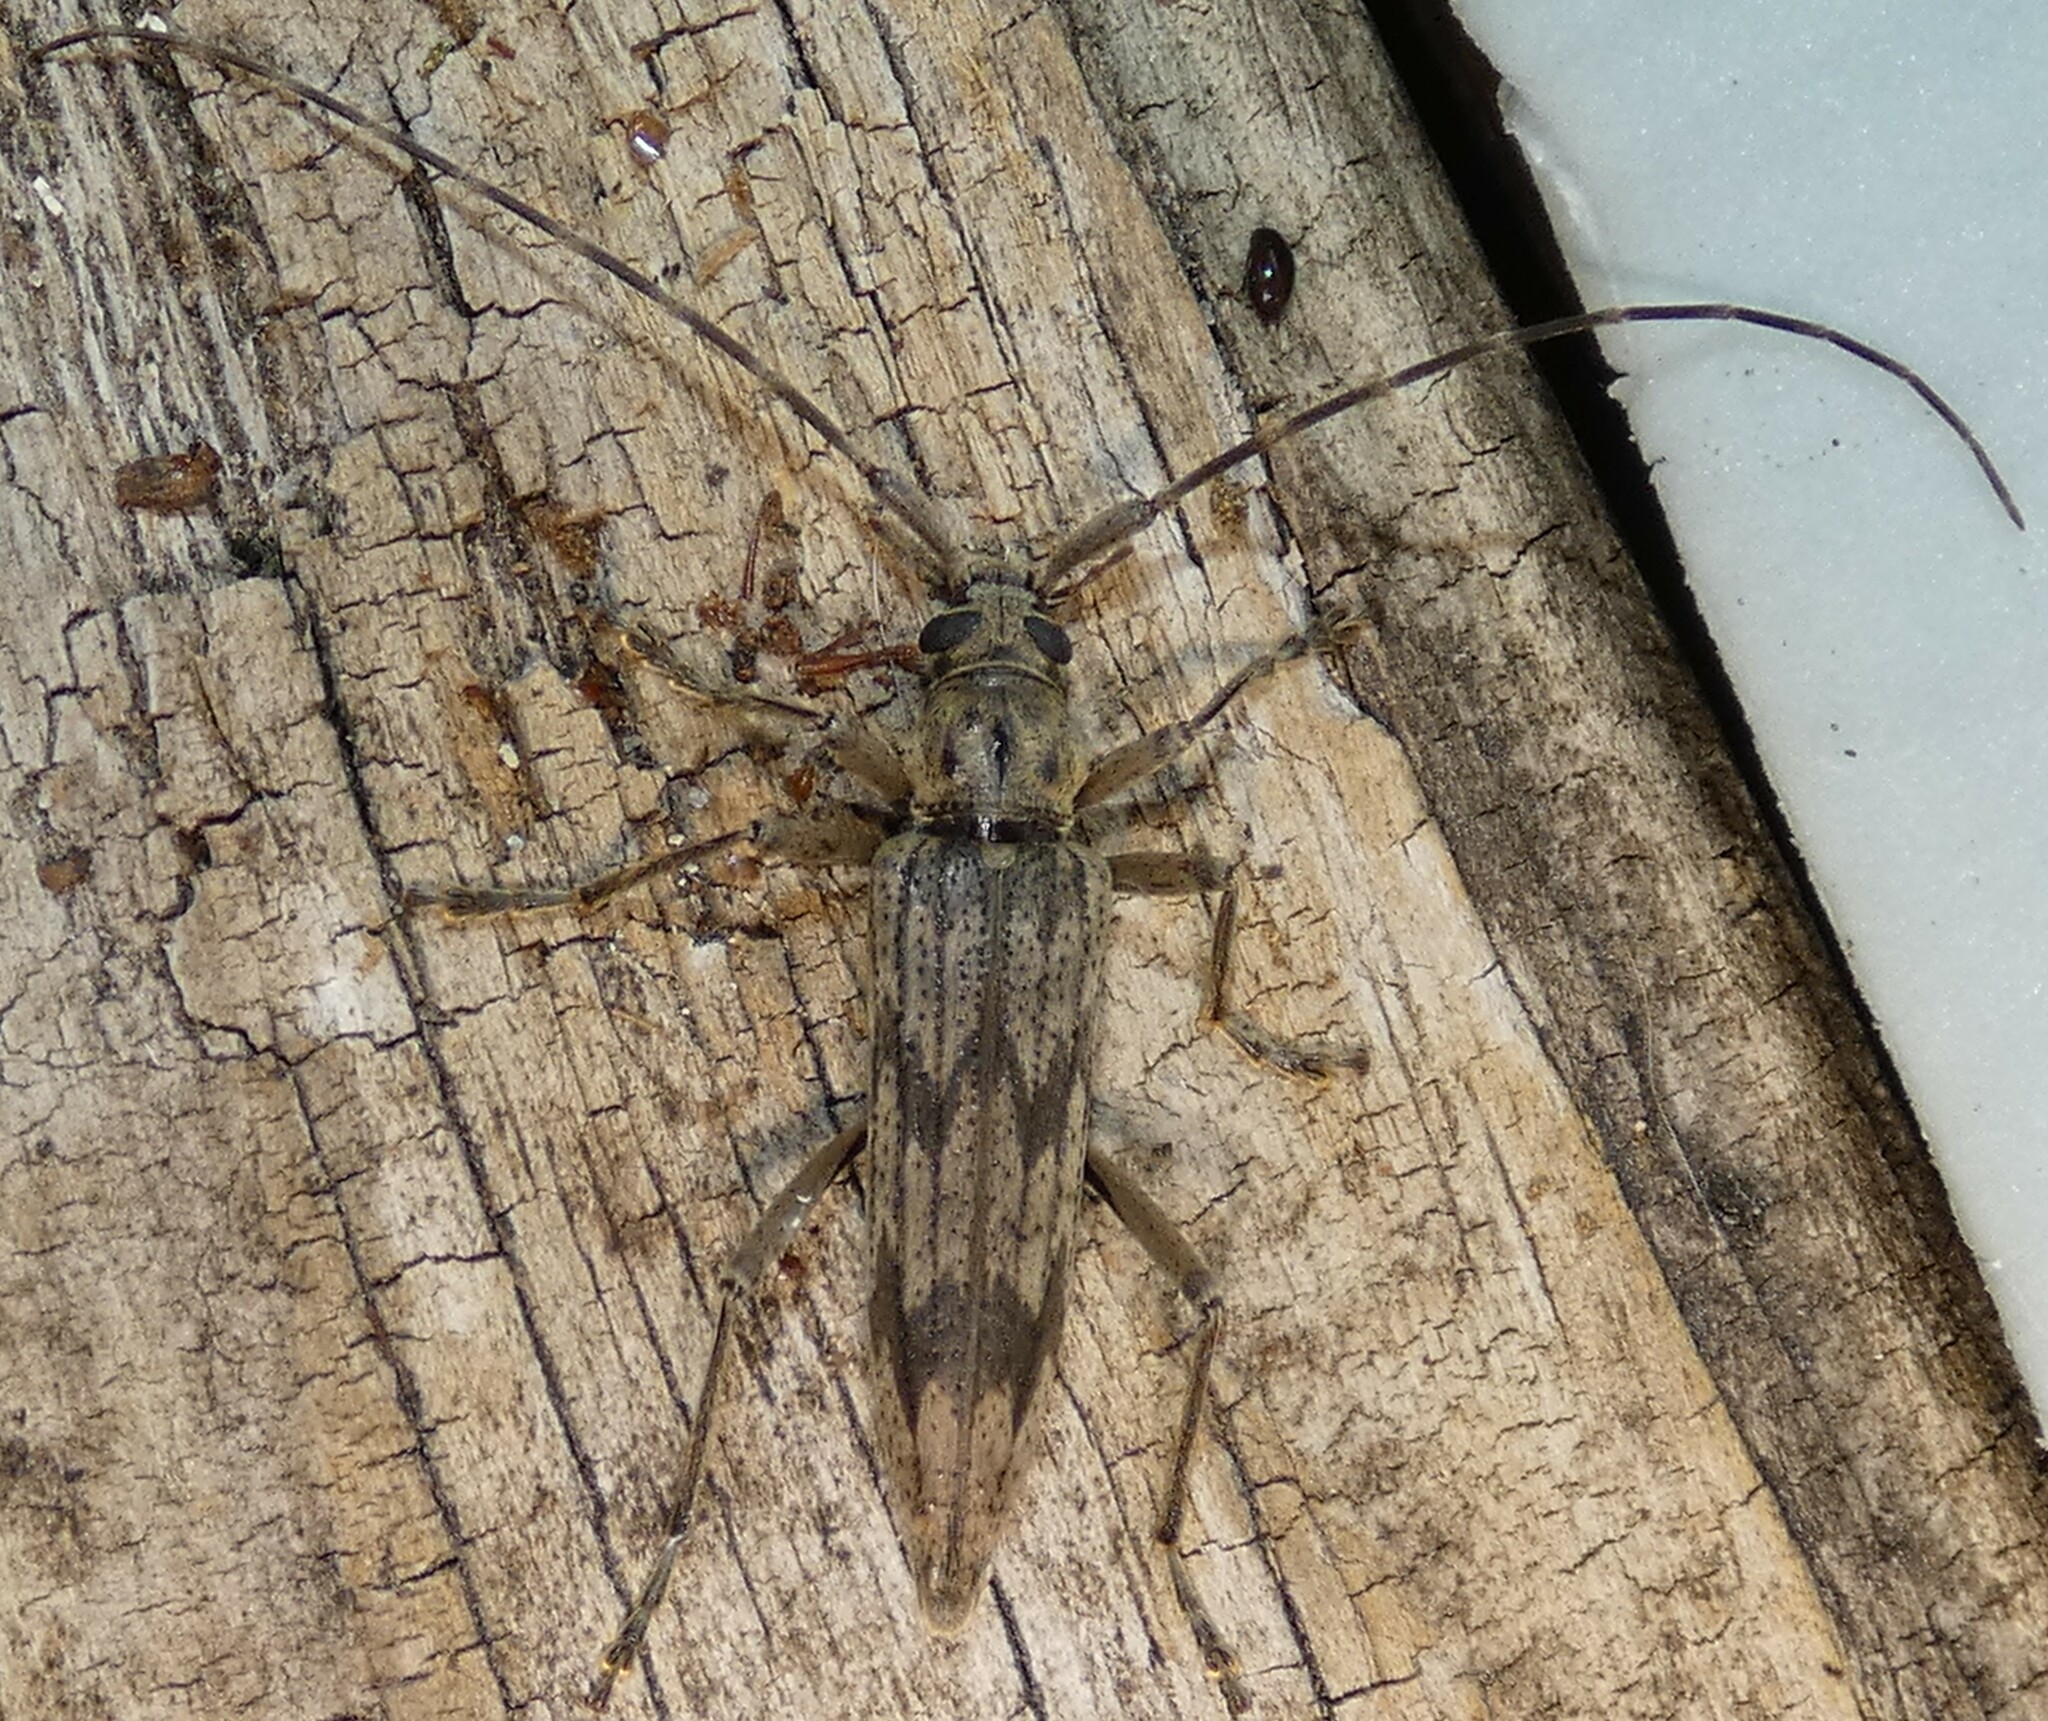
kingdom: Animalia
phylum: Arthropoda
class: Insecta
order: Coleoptera
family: Cerambycidae
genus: Elytrimitatrix
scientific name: Elytrimitatrix undata
